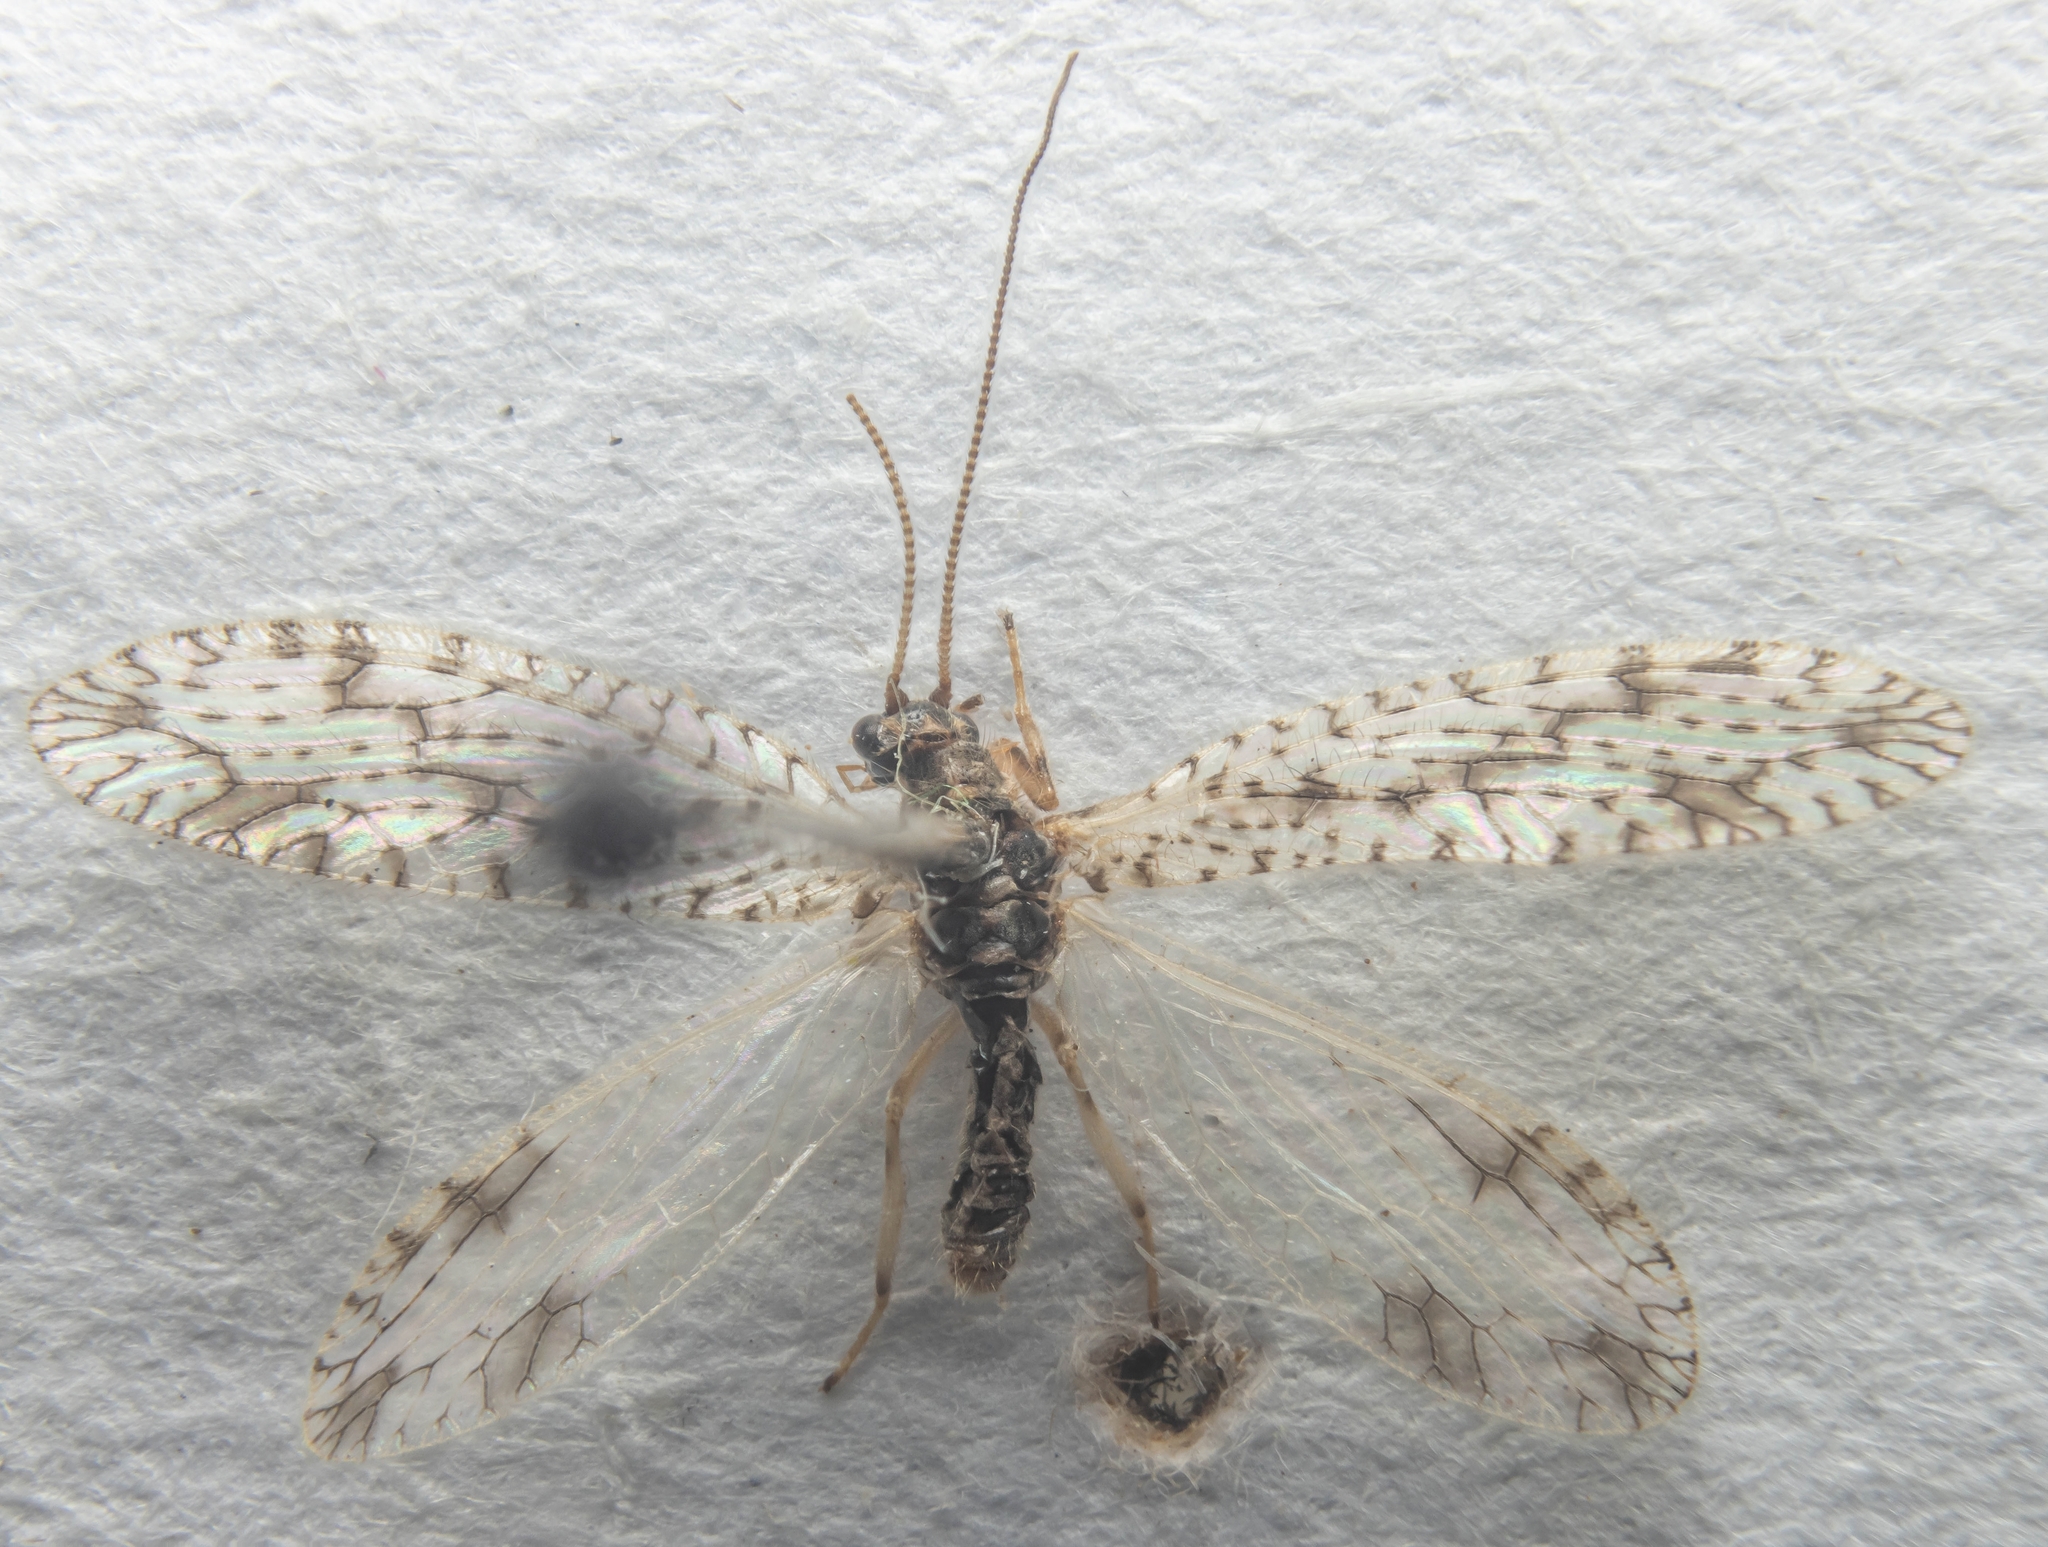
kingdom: Animalia
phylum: Arthropoda
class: Insecta
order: Neuroptera
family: Hemerobiidae
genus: Micromus
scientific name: Micromus variegatus
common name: Brown lacewing
